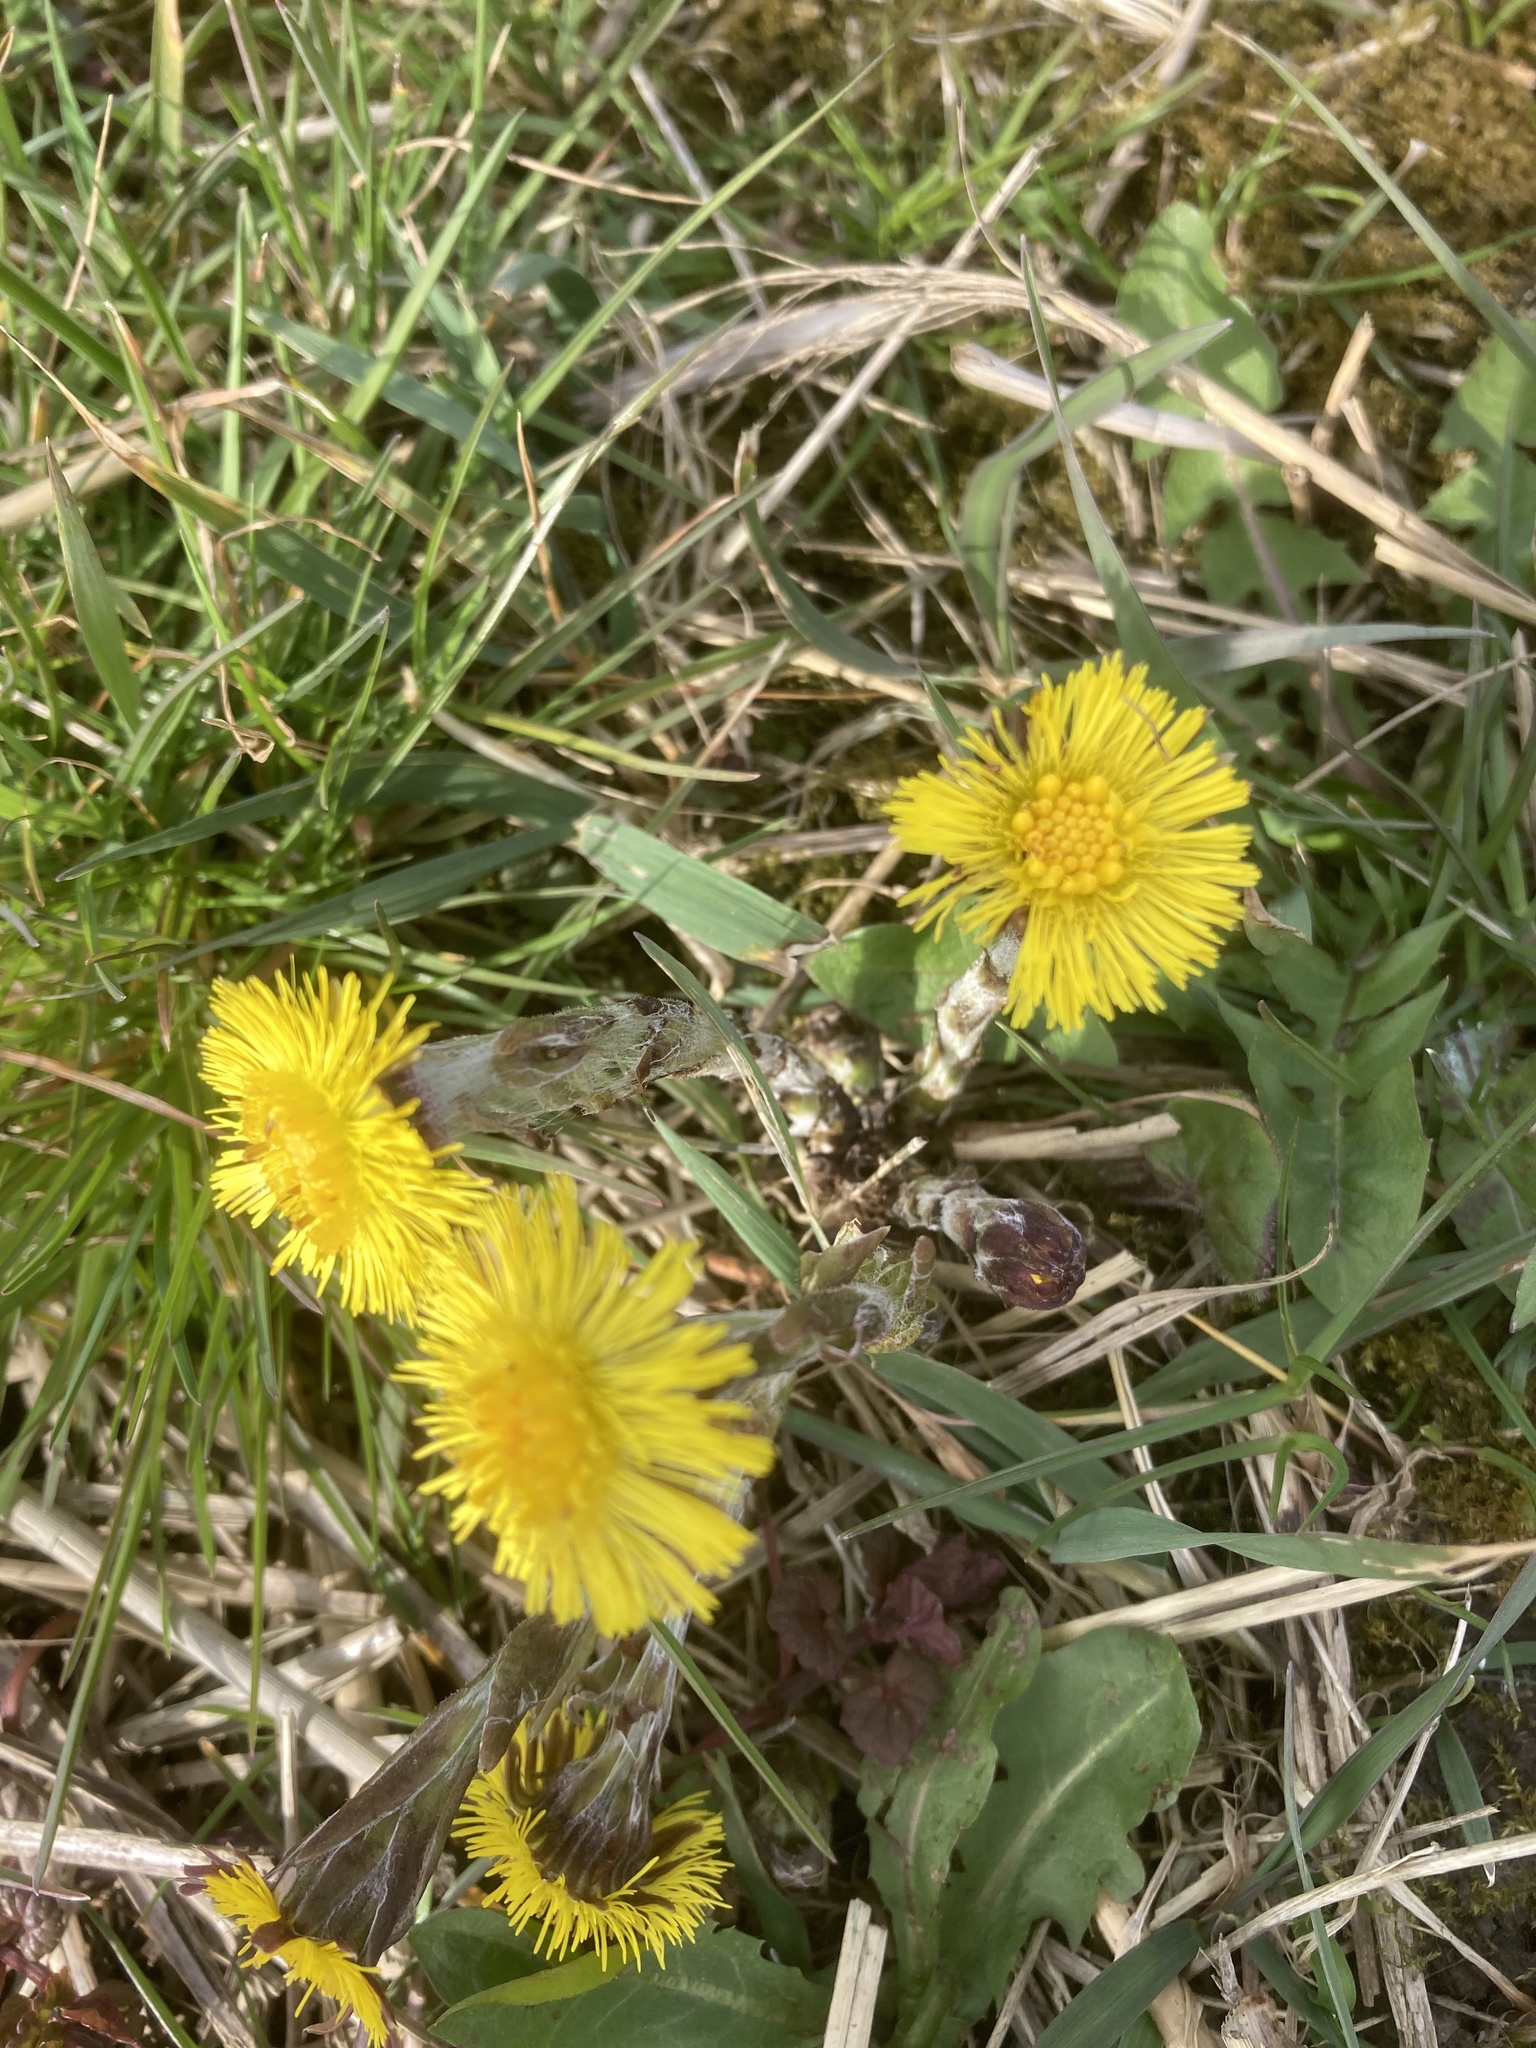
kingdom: Plantae
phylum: Tracheophyta
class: Magnoliopsida
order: Asterales
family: Asteraceae
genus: Tussilago
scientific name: Tussilago farfara
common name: Coltsfoot
